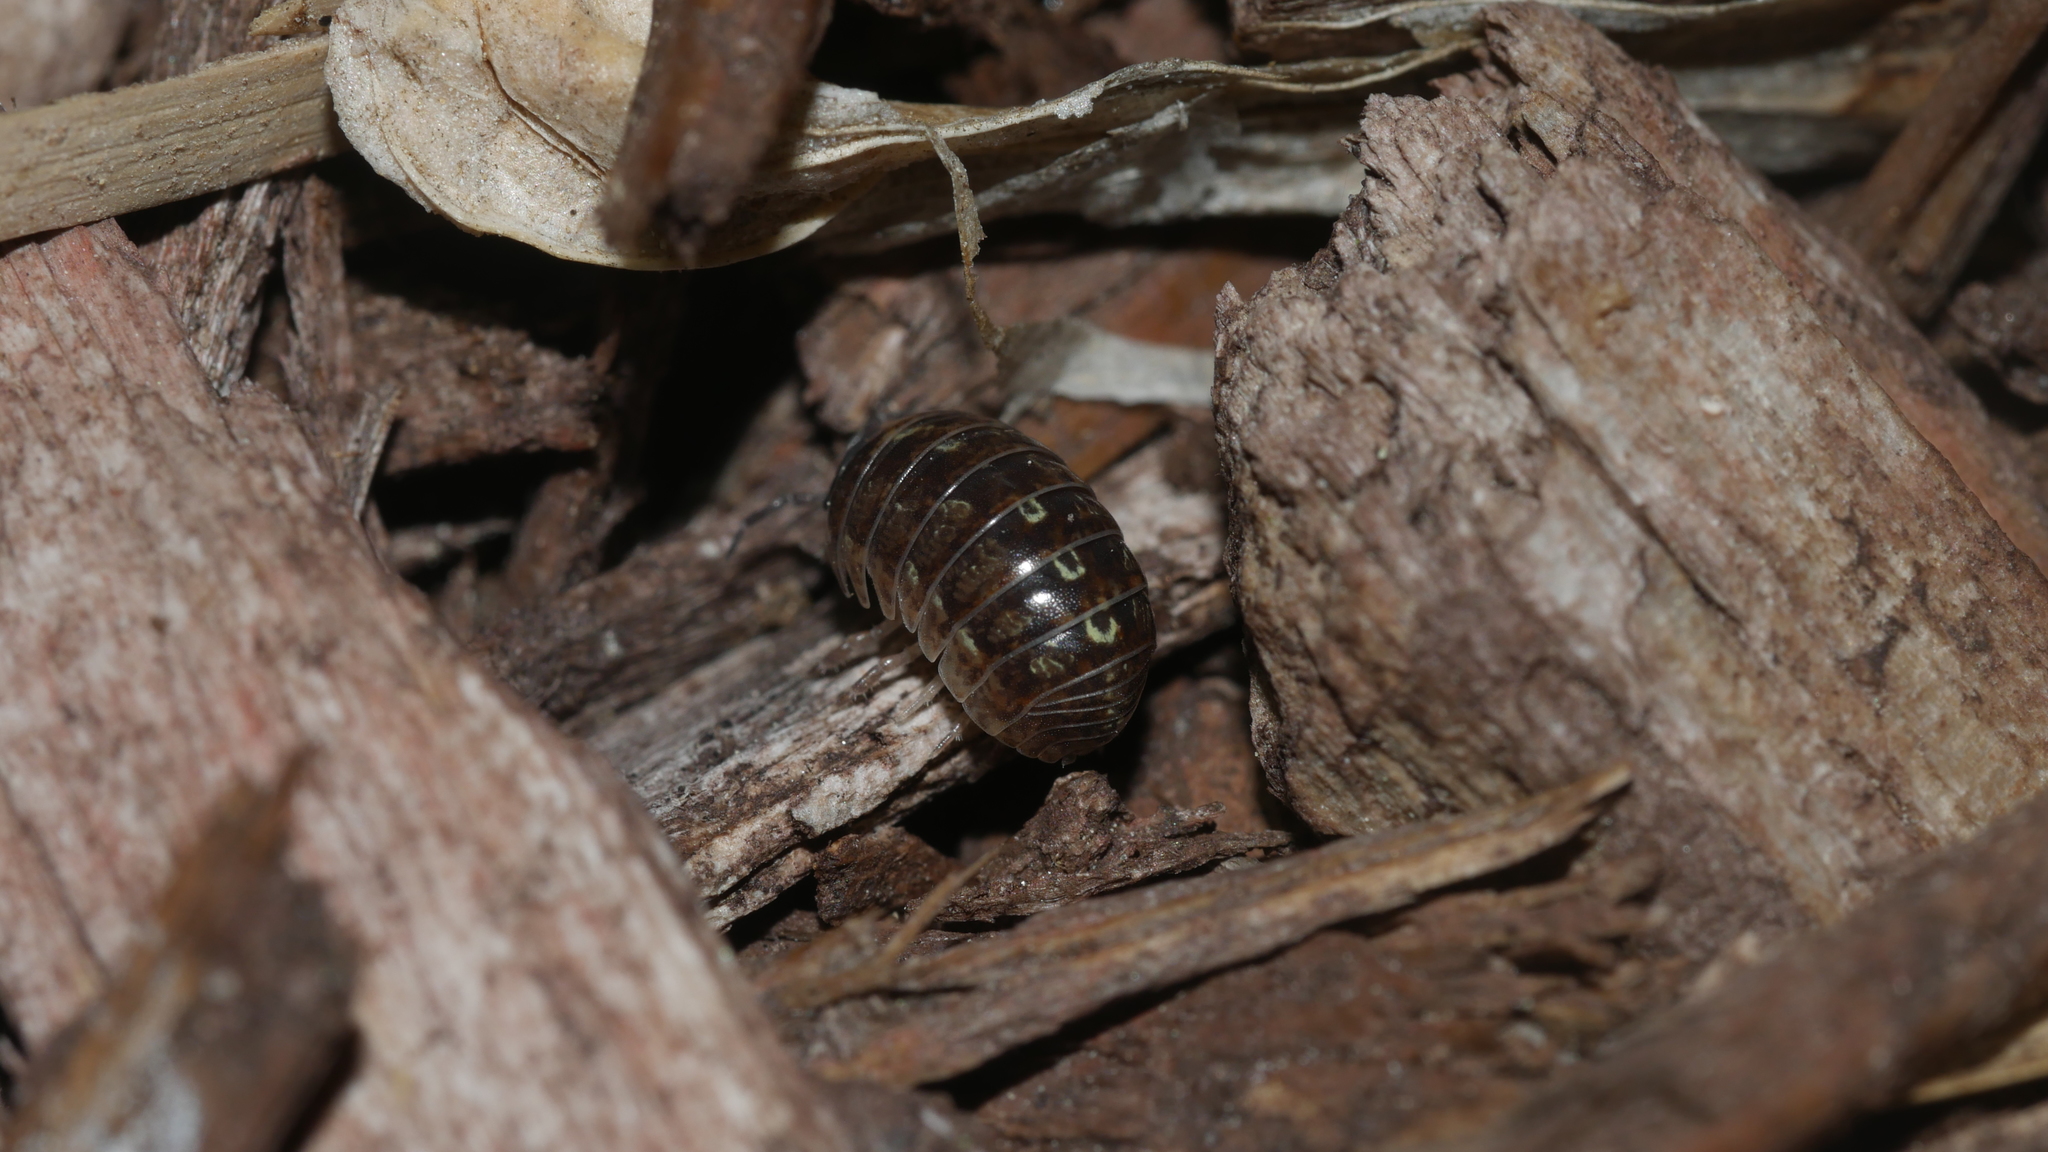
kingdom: Animalia
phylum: Arthropoda
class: Malacostraca
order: Isopoda
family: Armadillidiidae
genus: Armadillidium
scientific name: Armadillidium vulgare
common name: Common pill woodlouse
